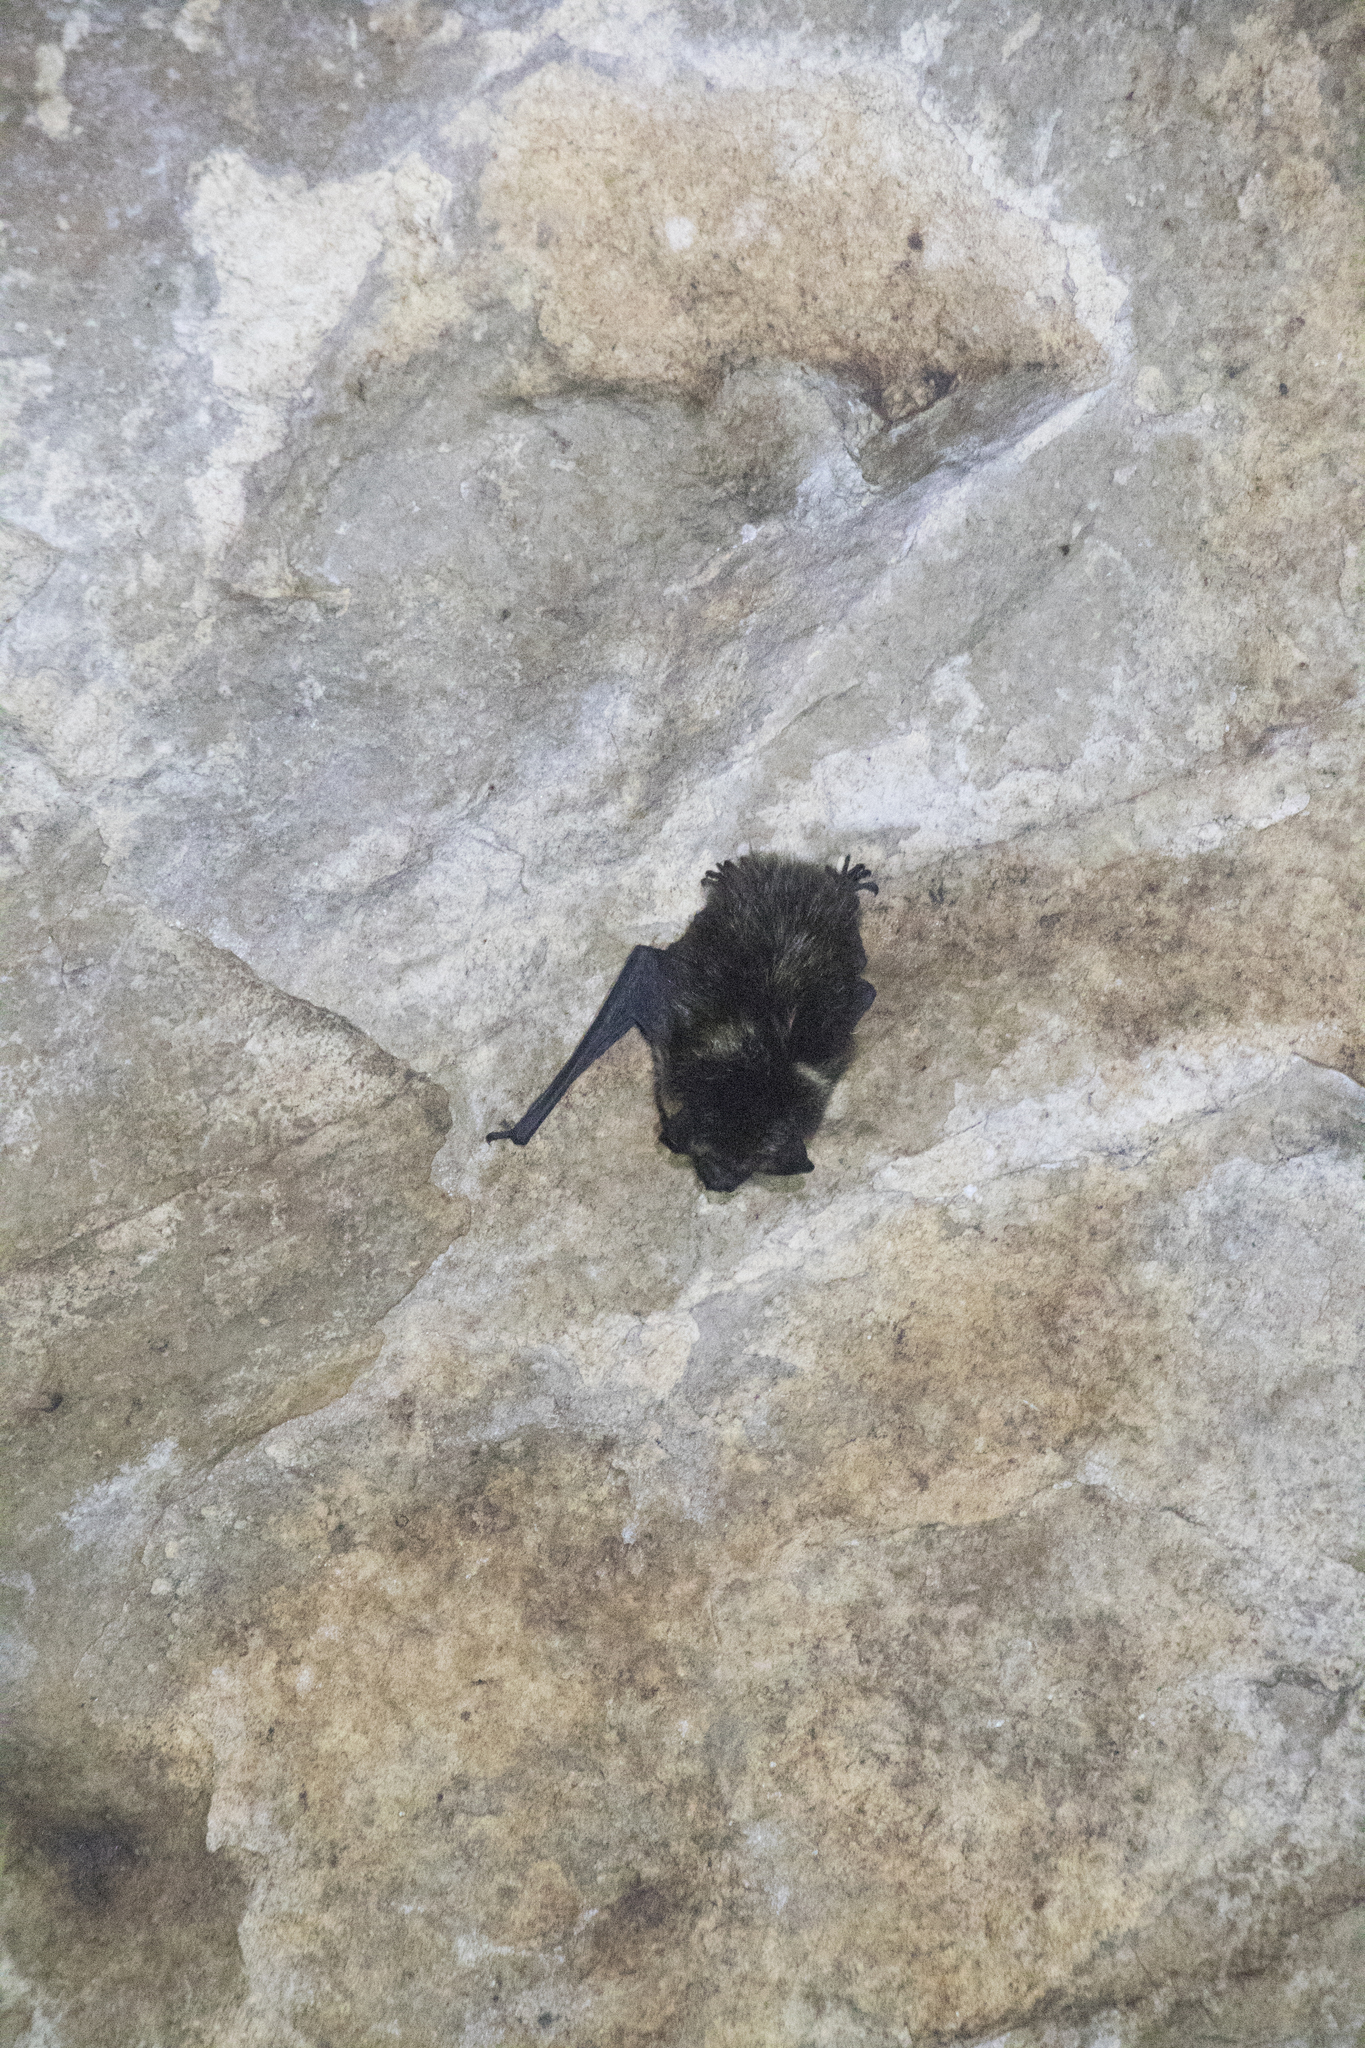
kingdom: Animalia
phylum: Chordata
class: Mammalia
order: Chiroptera
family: Vespertilionidae
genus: Eptesicus
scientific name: Eptesicus nilssonii
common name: Northern bat
